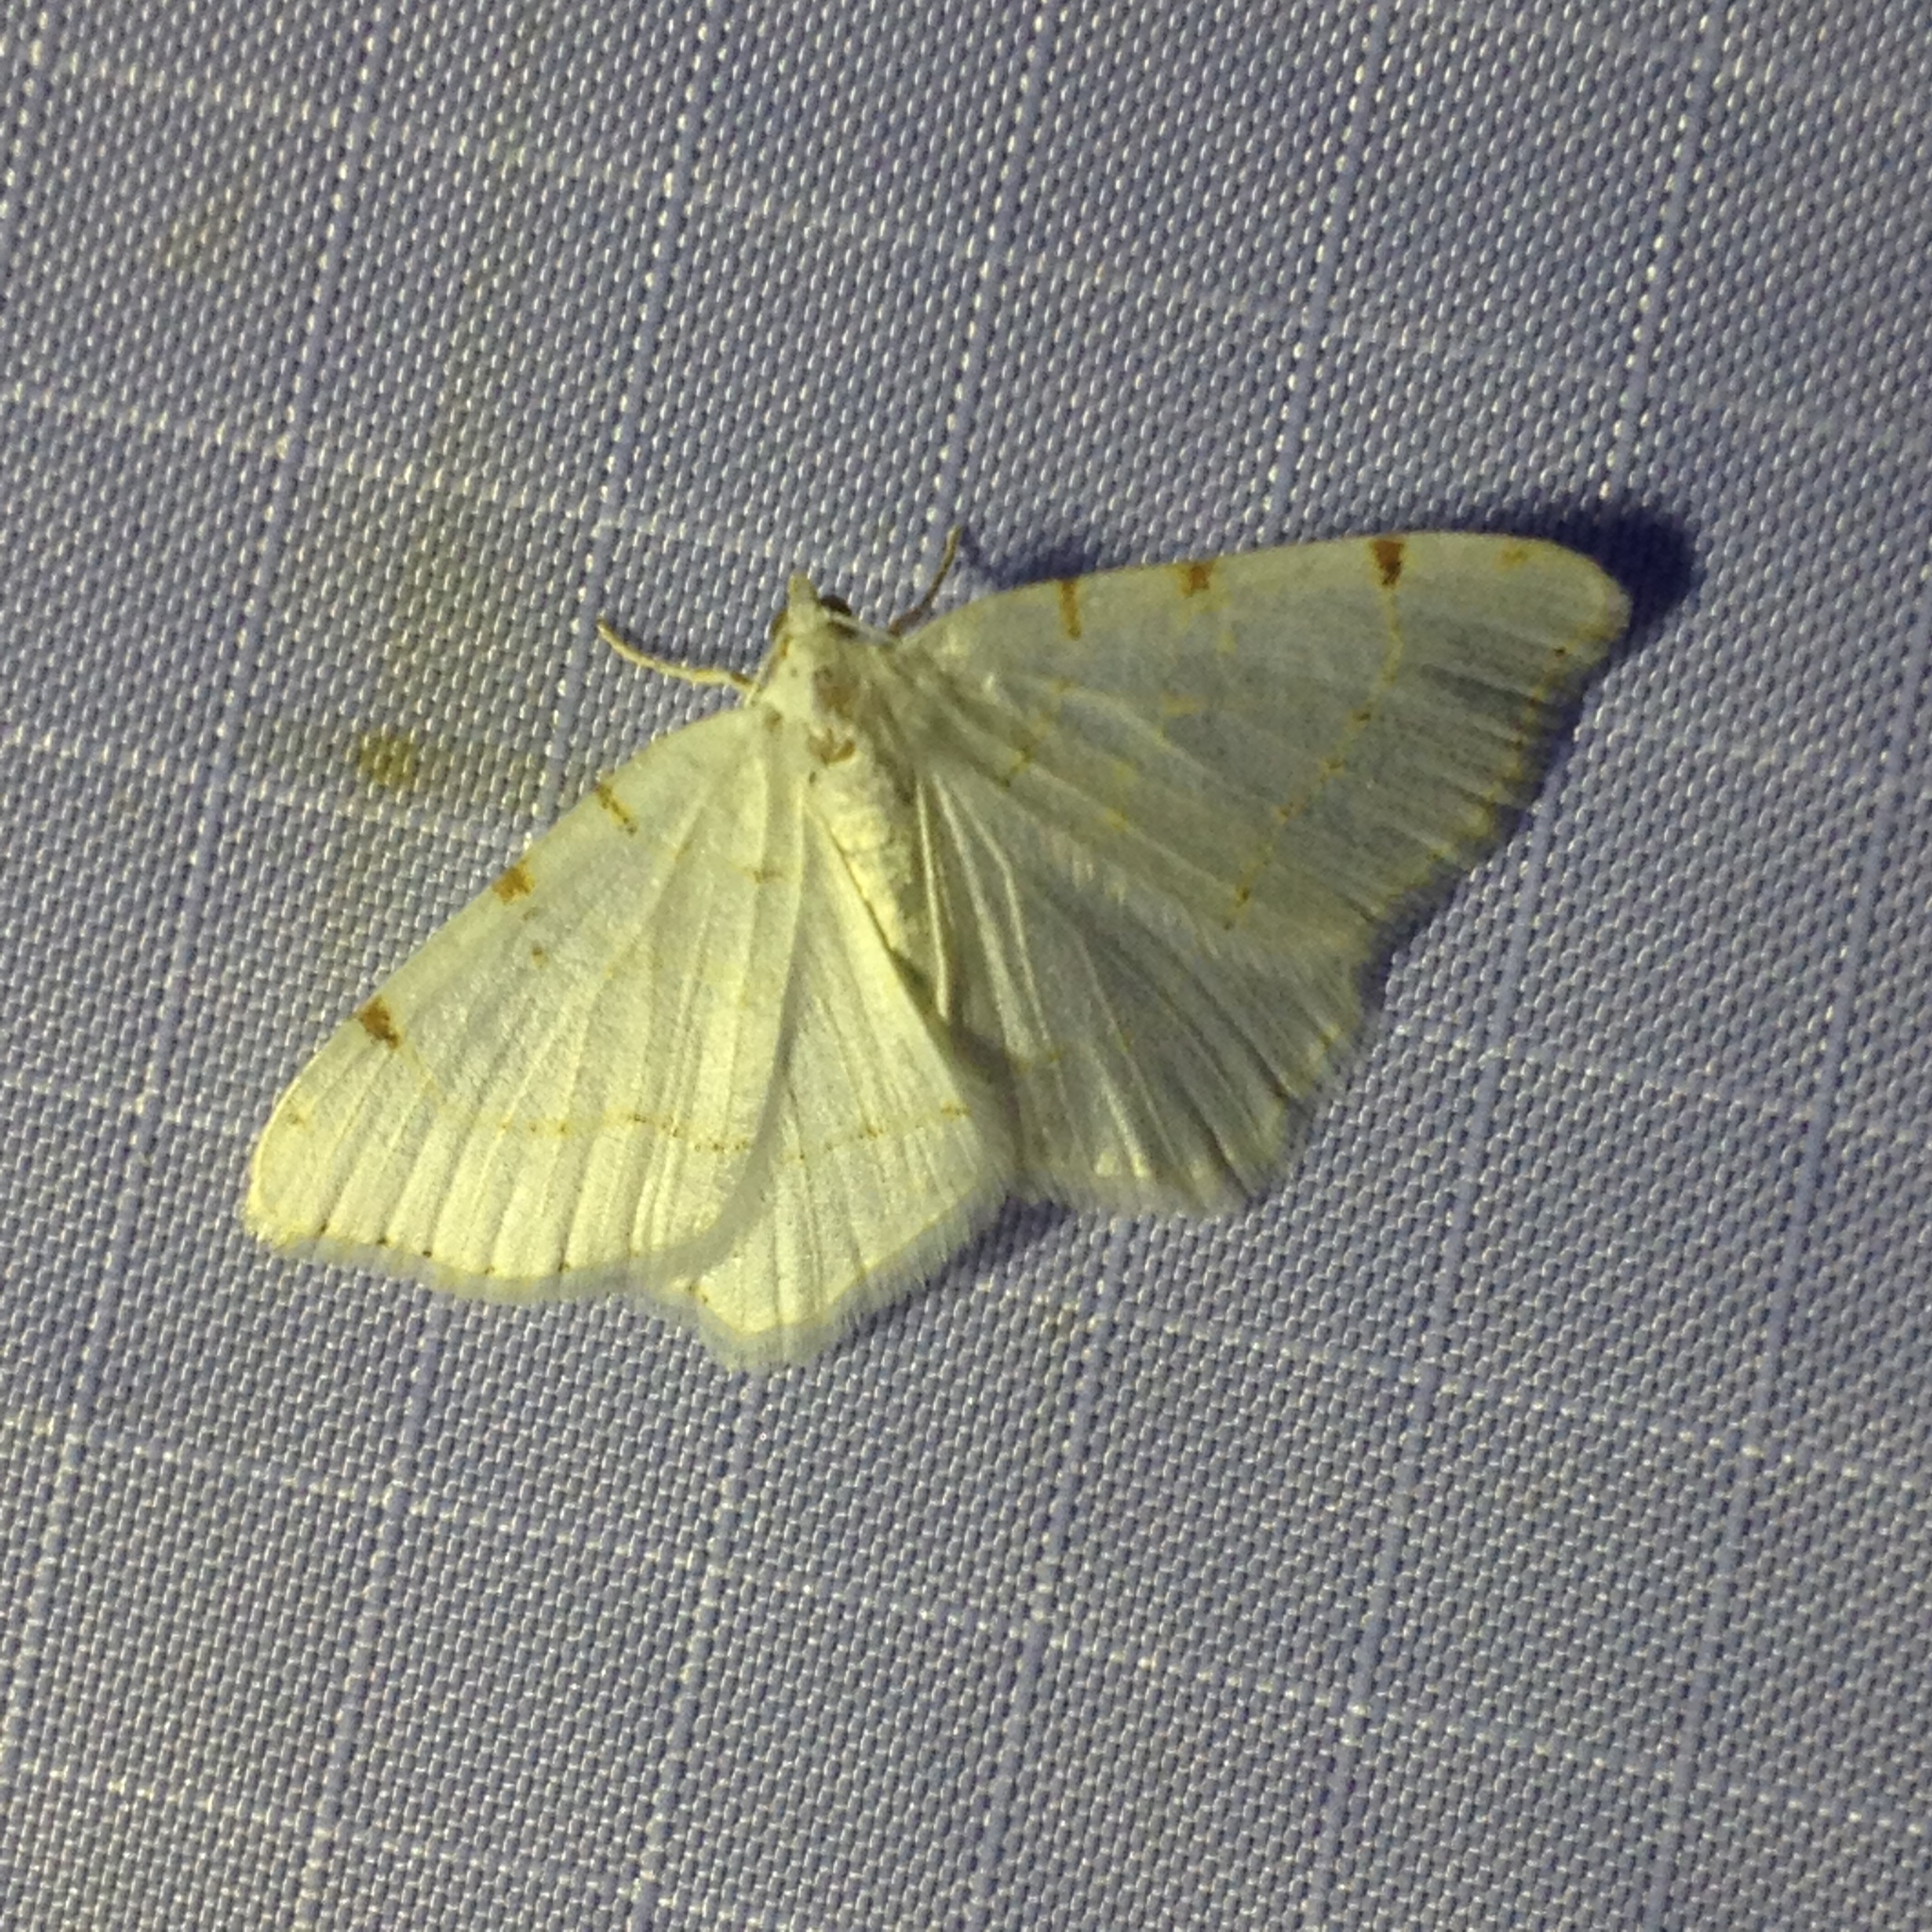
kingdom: Animalia
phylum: Arthropoda
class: Insecta
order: Lepidoptera
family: Geometridae
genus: Macaria
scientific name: Macaria pustularia
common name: Lesser maple spanworm moth
